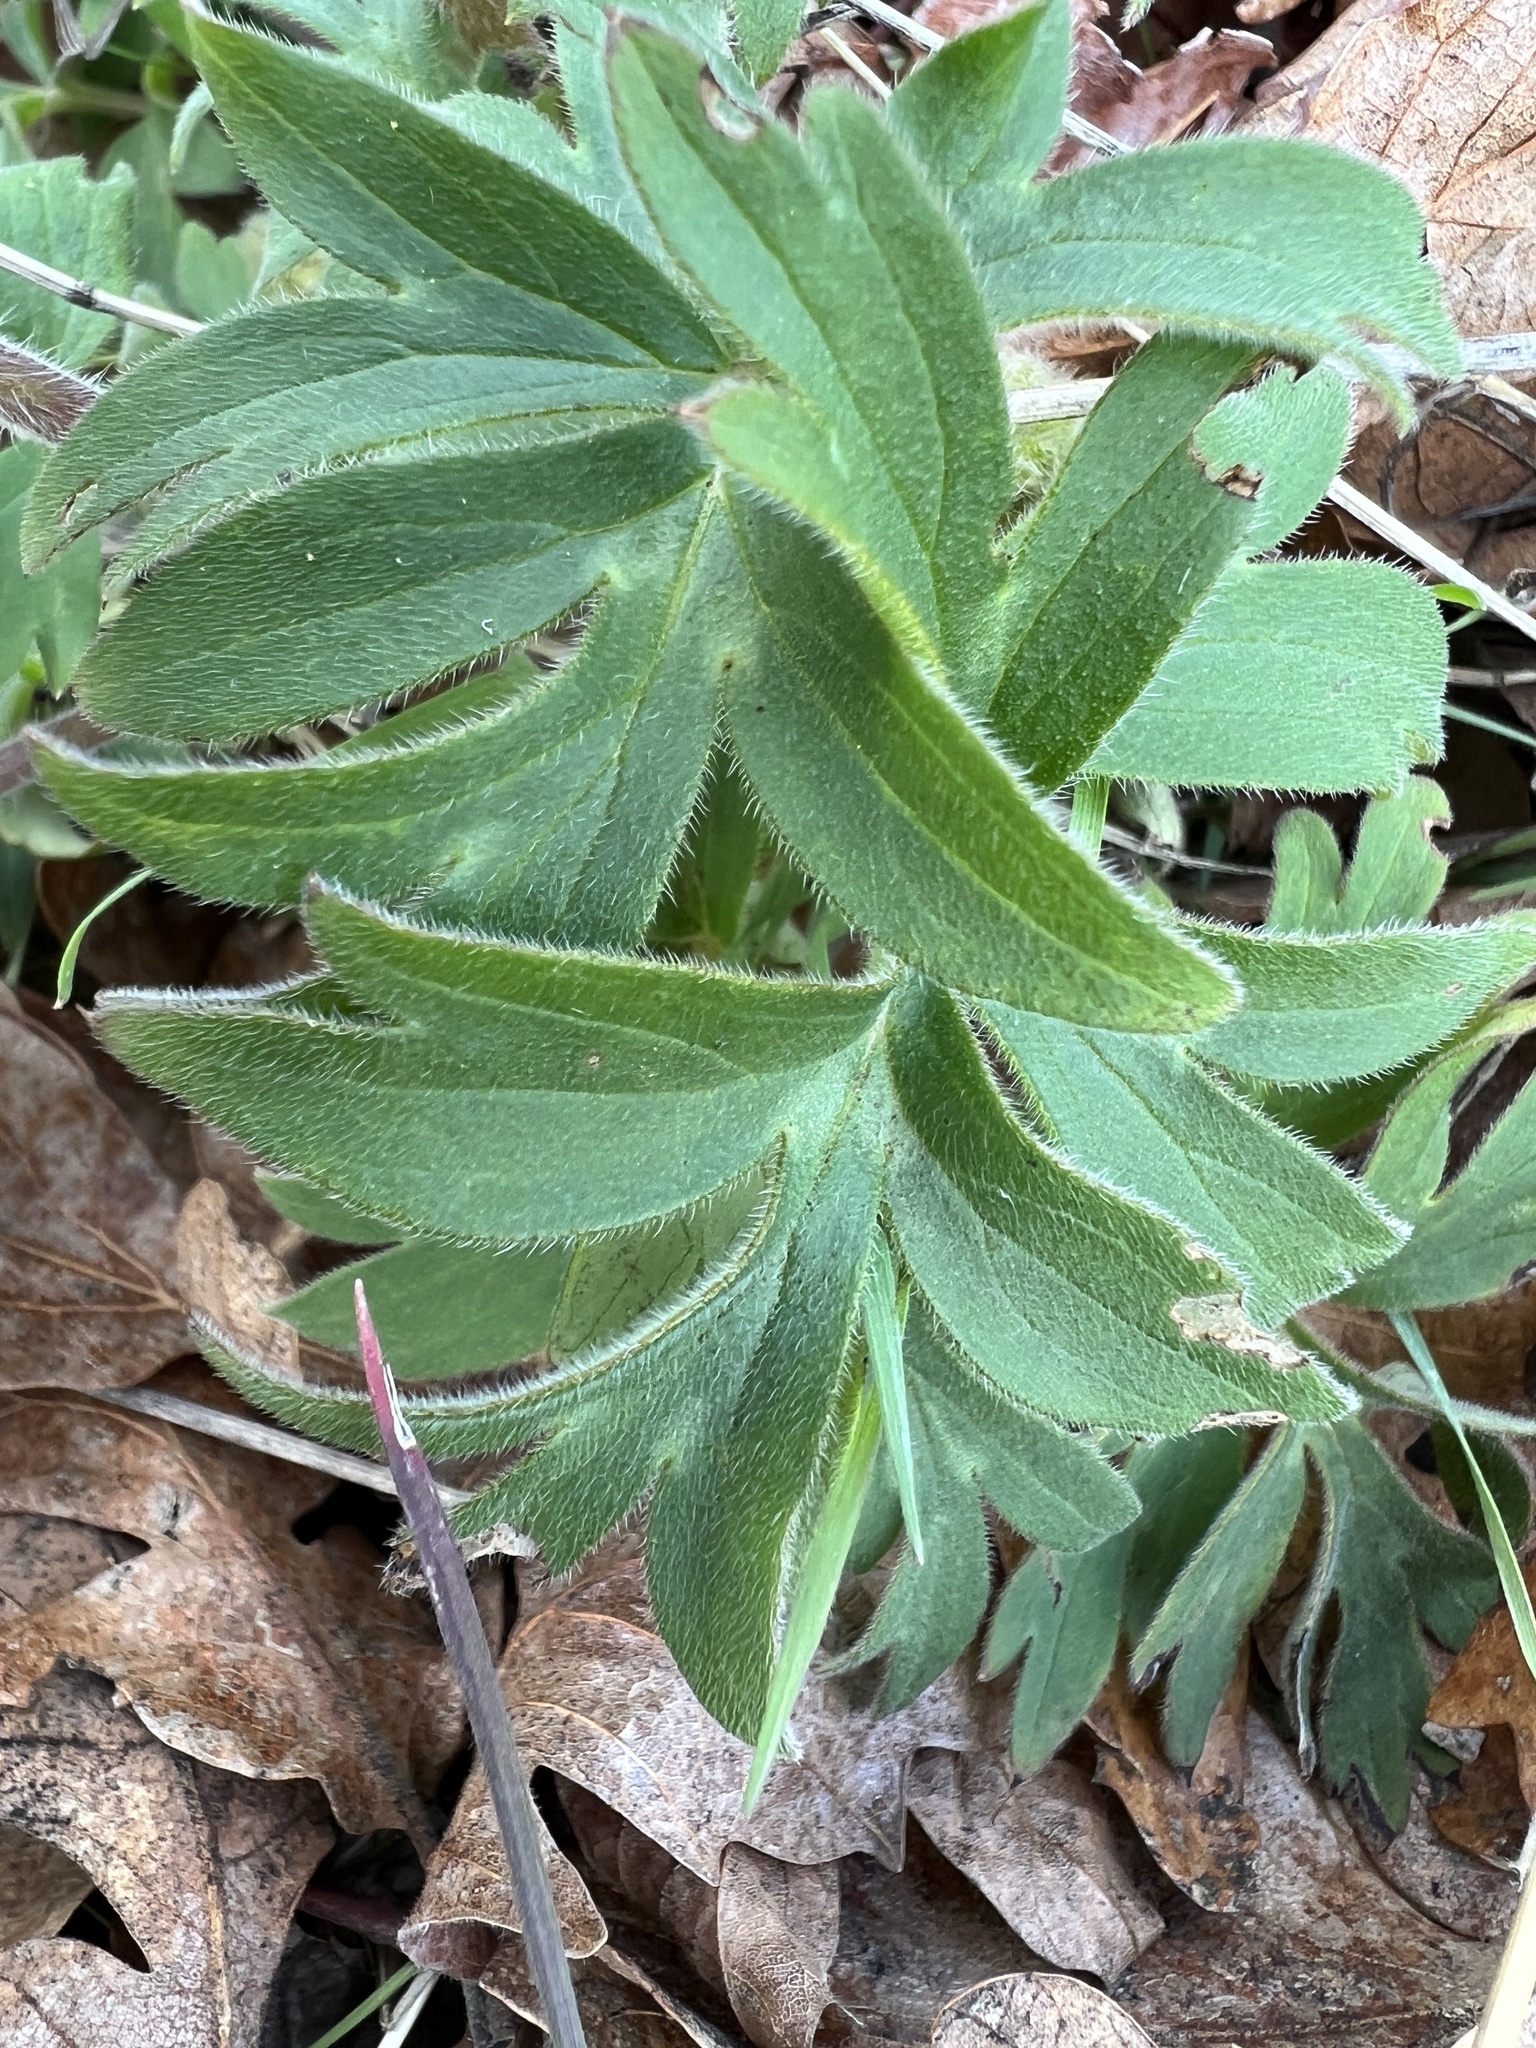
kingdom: Plantae
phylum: Tracheophyta
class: Magnoliopsida
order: Boraginales
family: Hydrophyllaceae
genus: Hydrophyllum
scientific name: Hydrophyllum capitatum
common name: Woollen-breeches
